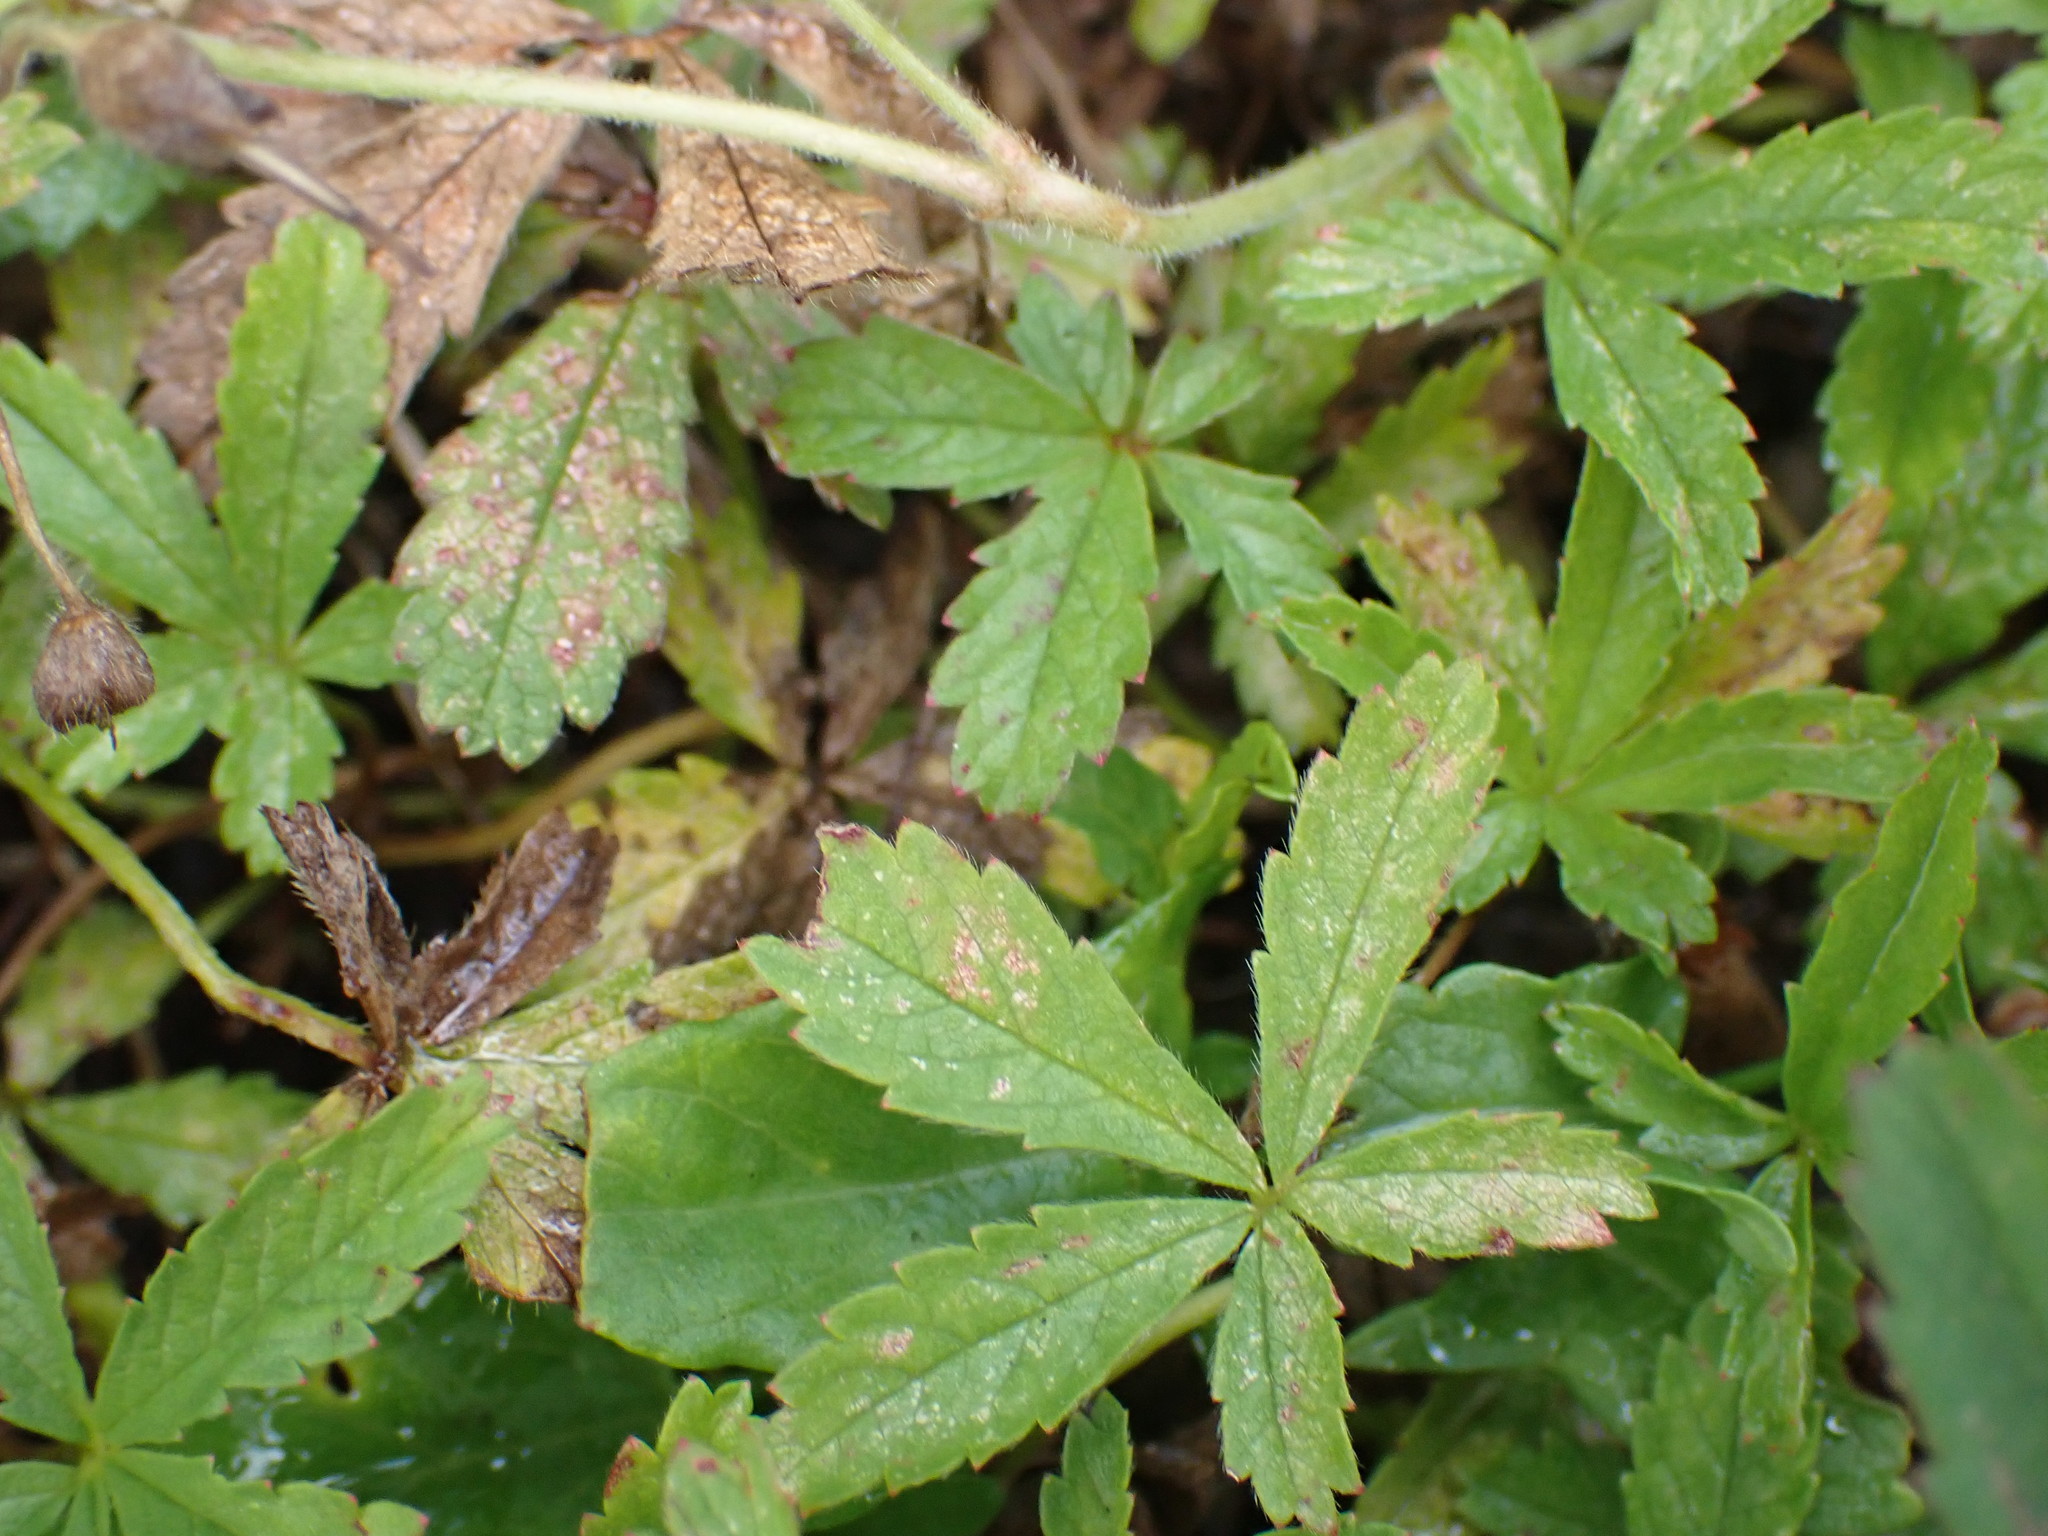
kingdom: Plantae
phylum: Tracheophyta
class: Magnoliopsida
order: Rosales
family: Rosaceae
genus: Potentilla
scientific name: Potentilla reptans
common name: Creeping cinquefoil
